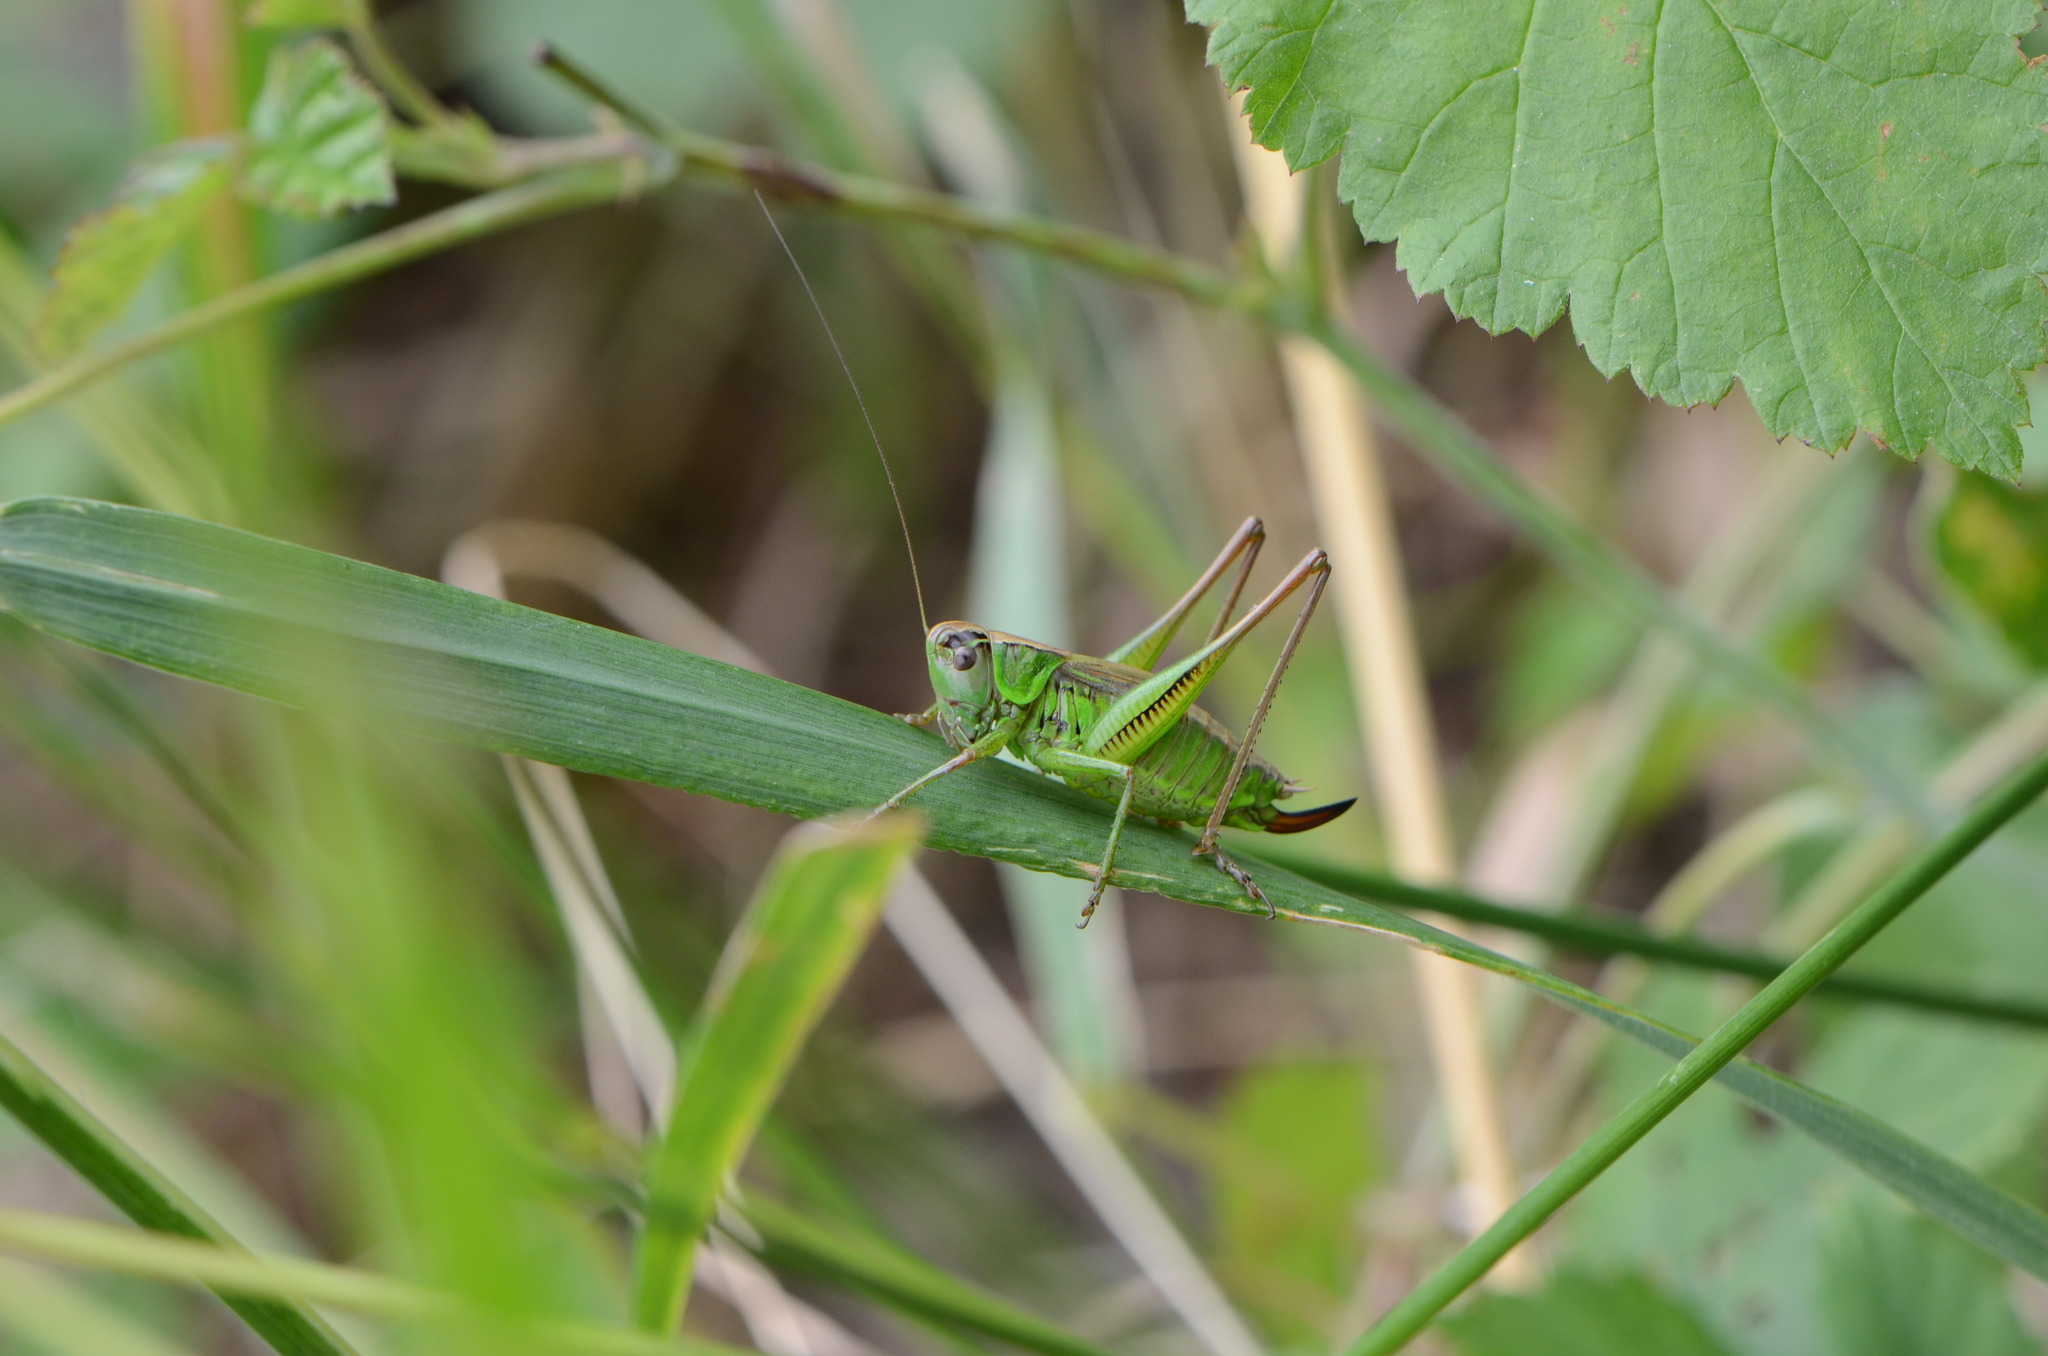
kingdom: Animalia
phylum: Arthropoda
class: Insecta
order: Orthoptera
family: Tettigoniidae
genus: Roeseliana
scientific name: Roeseliana roeselii
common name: Roesel's bush cricket
